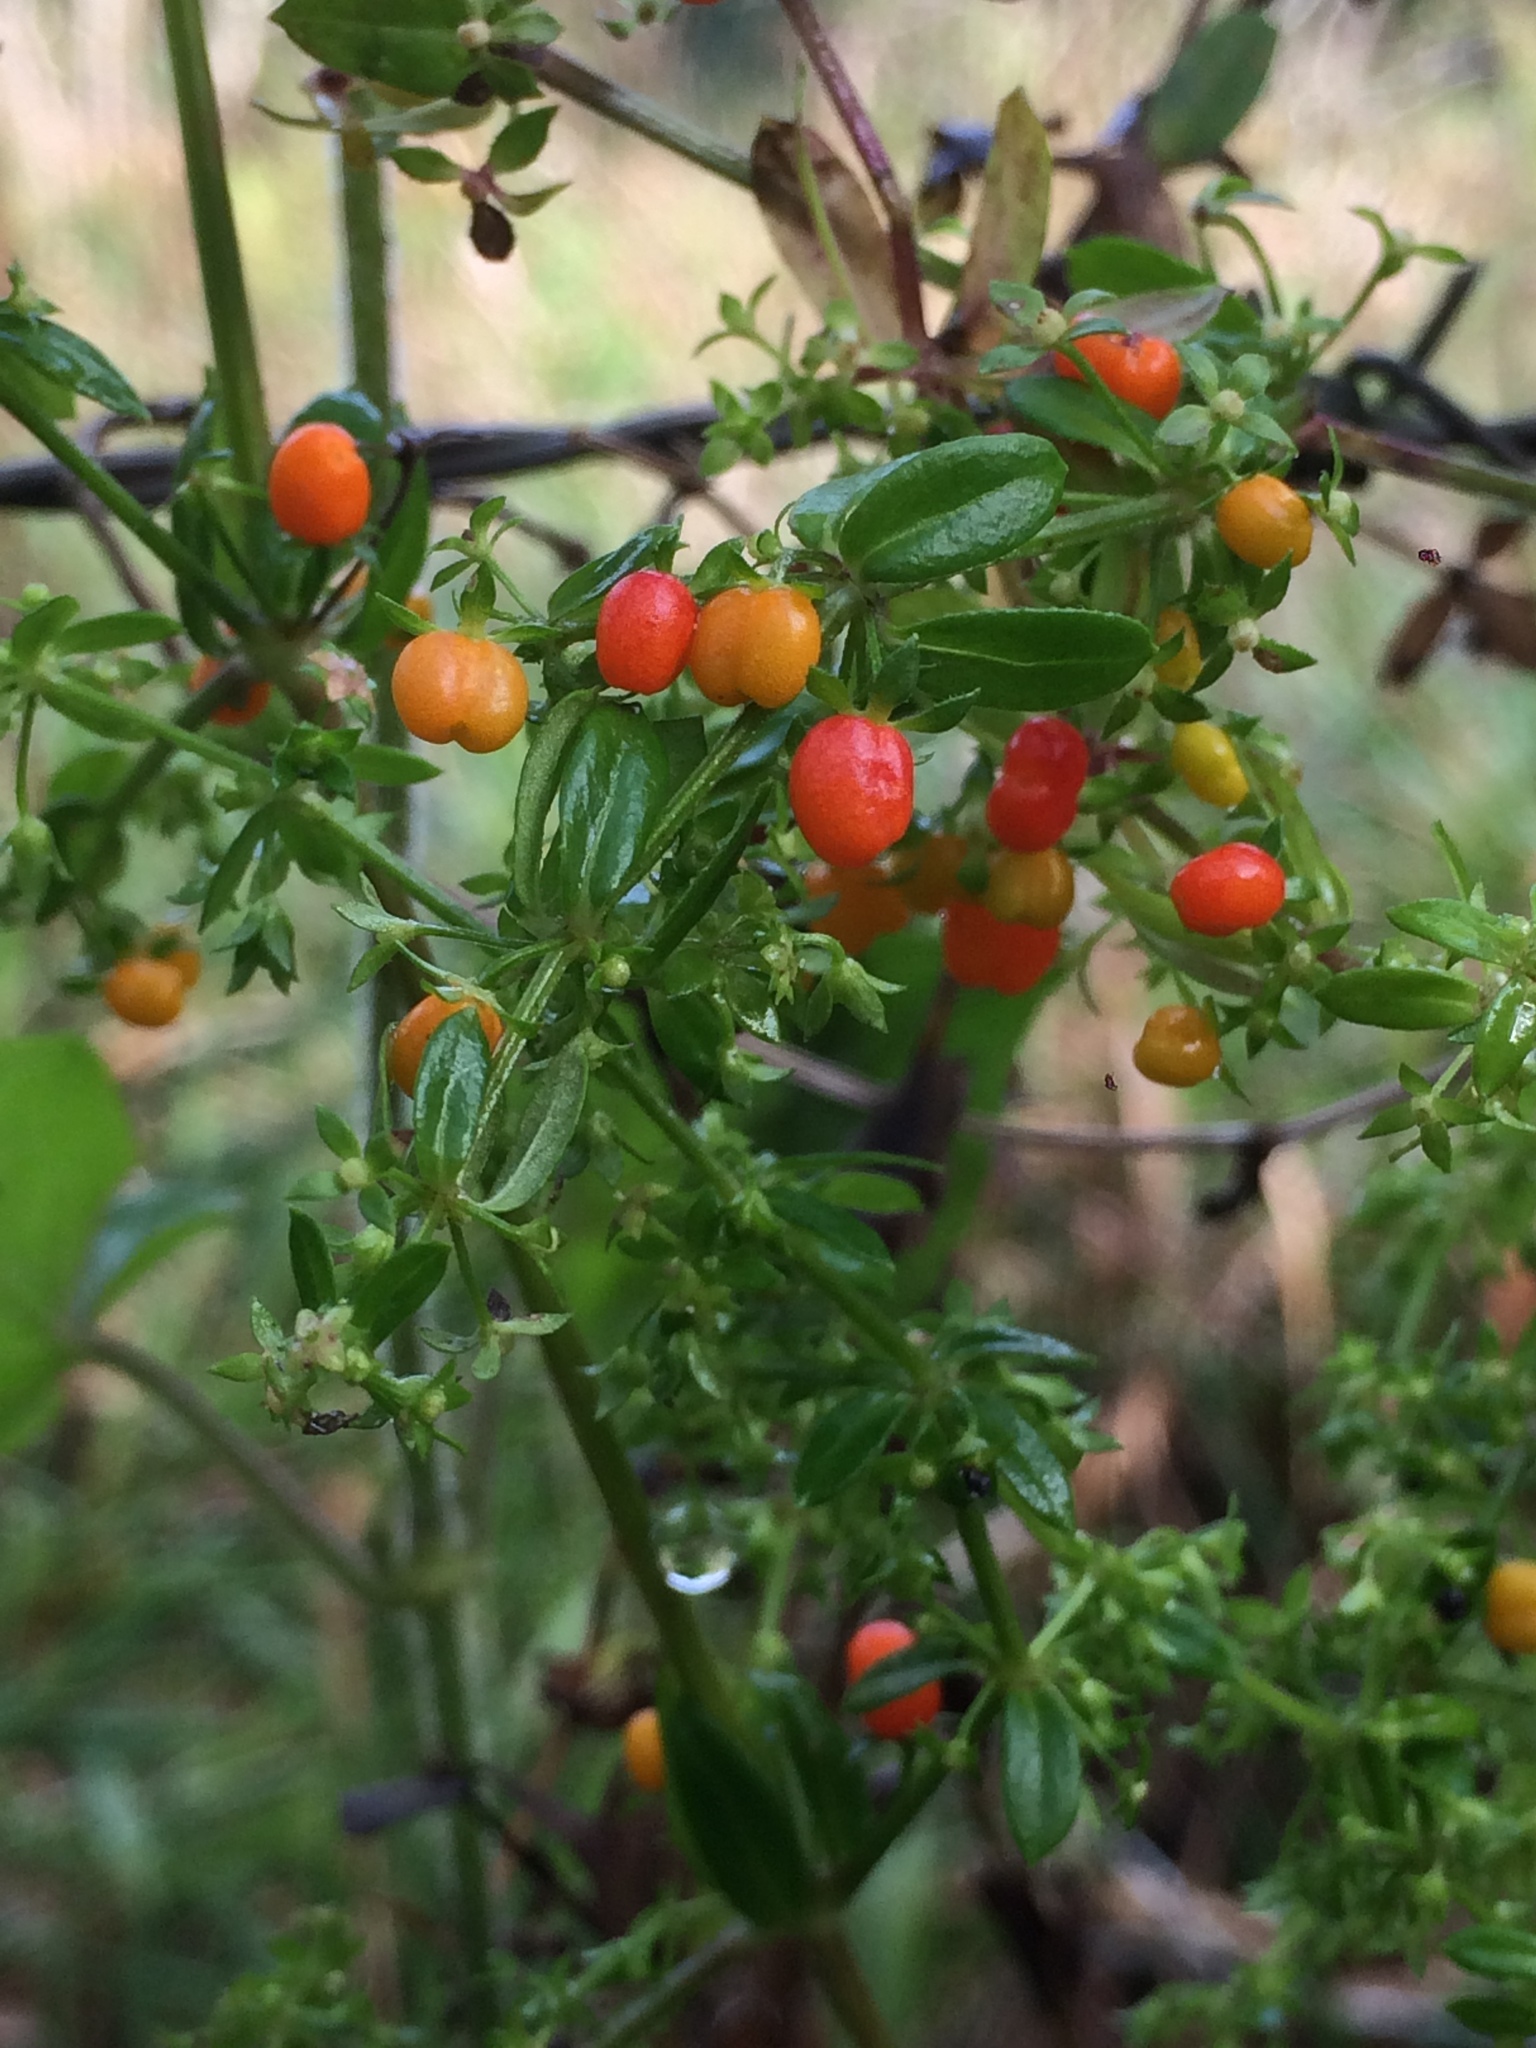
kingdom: Plantae
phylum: Tracheophyta
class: Magnoliopsida
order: Gentianales
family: Rubiaceae
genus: Galium
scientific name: Galium hypocarpium
